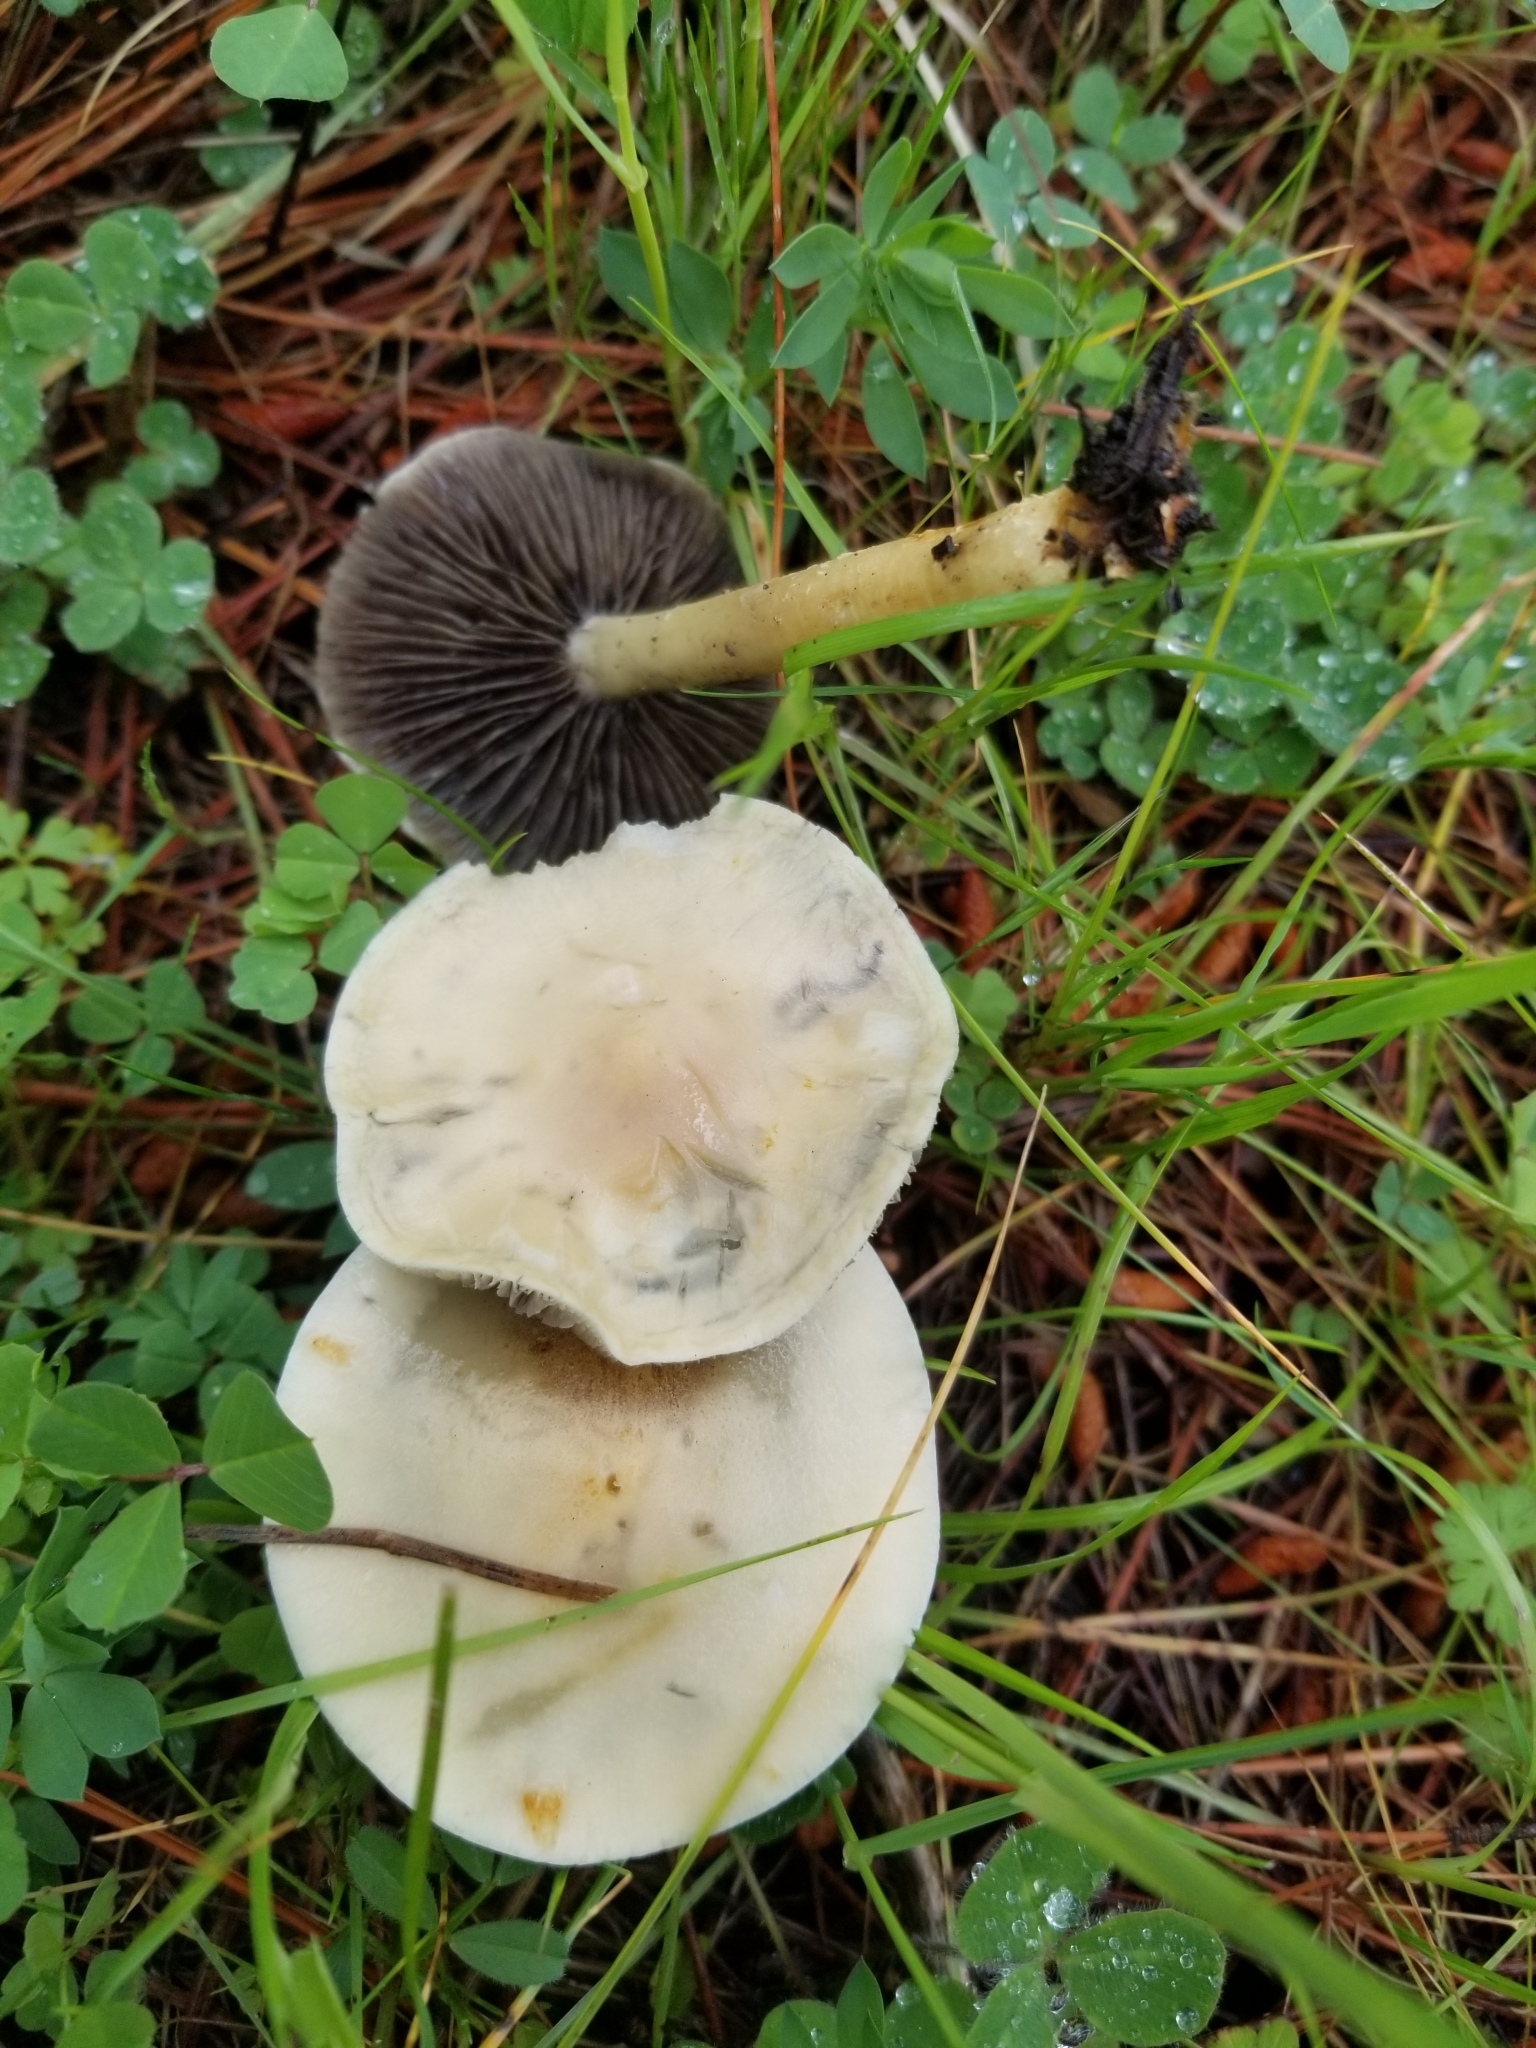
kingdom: Fungi
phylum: Basidiomycota
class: Agaricomycetes
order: Agaricales
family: Strophariaceae
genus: Leratiomyces
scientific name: Leratiomyces percevalii
